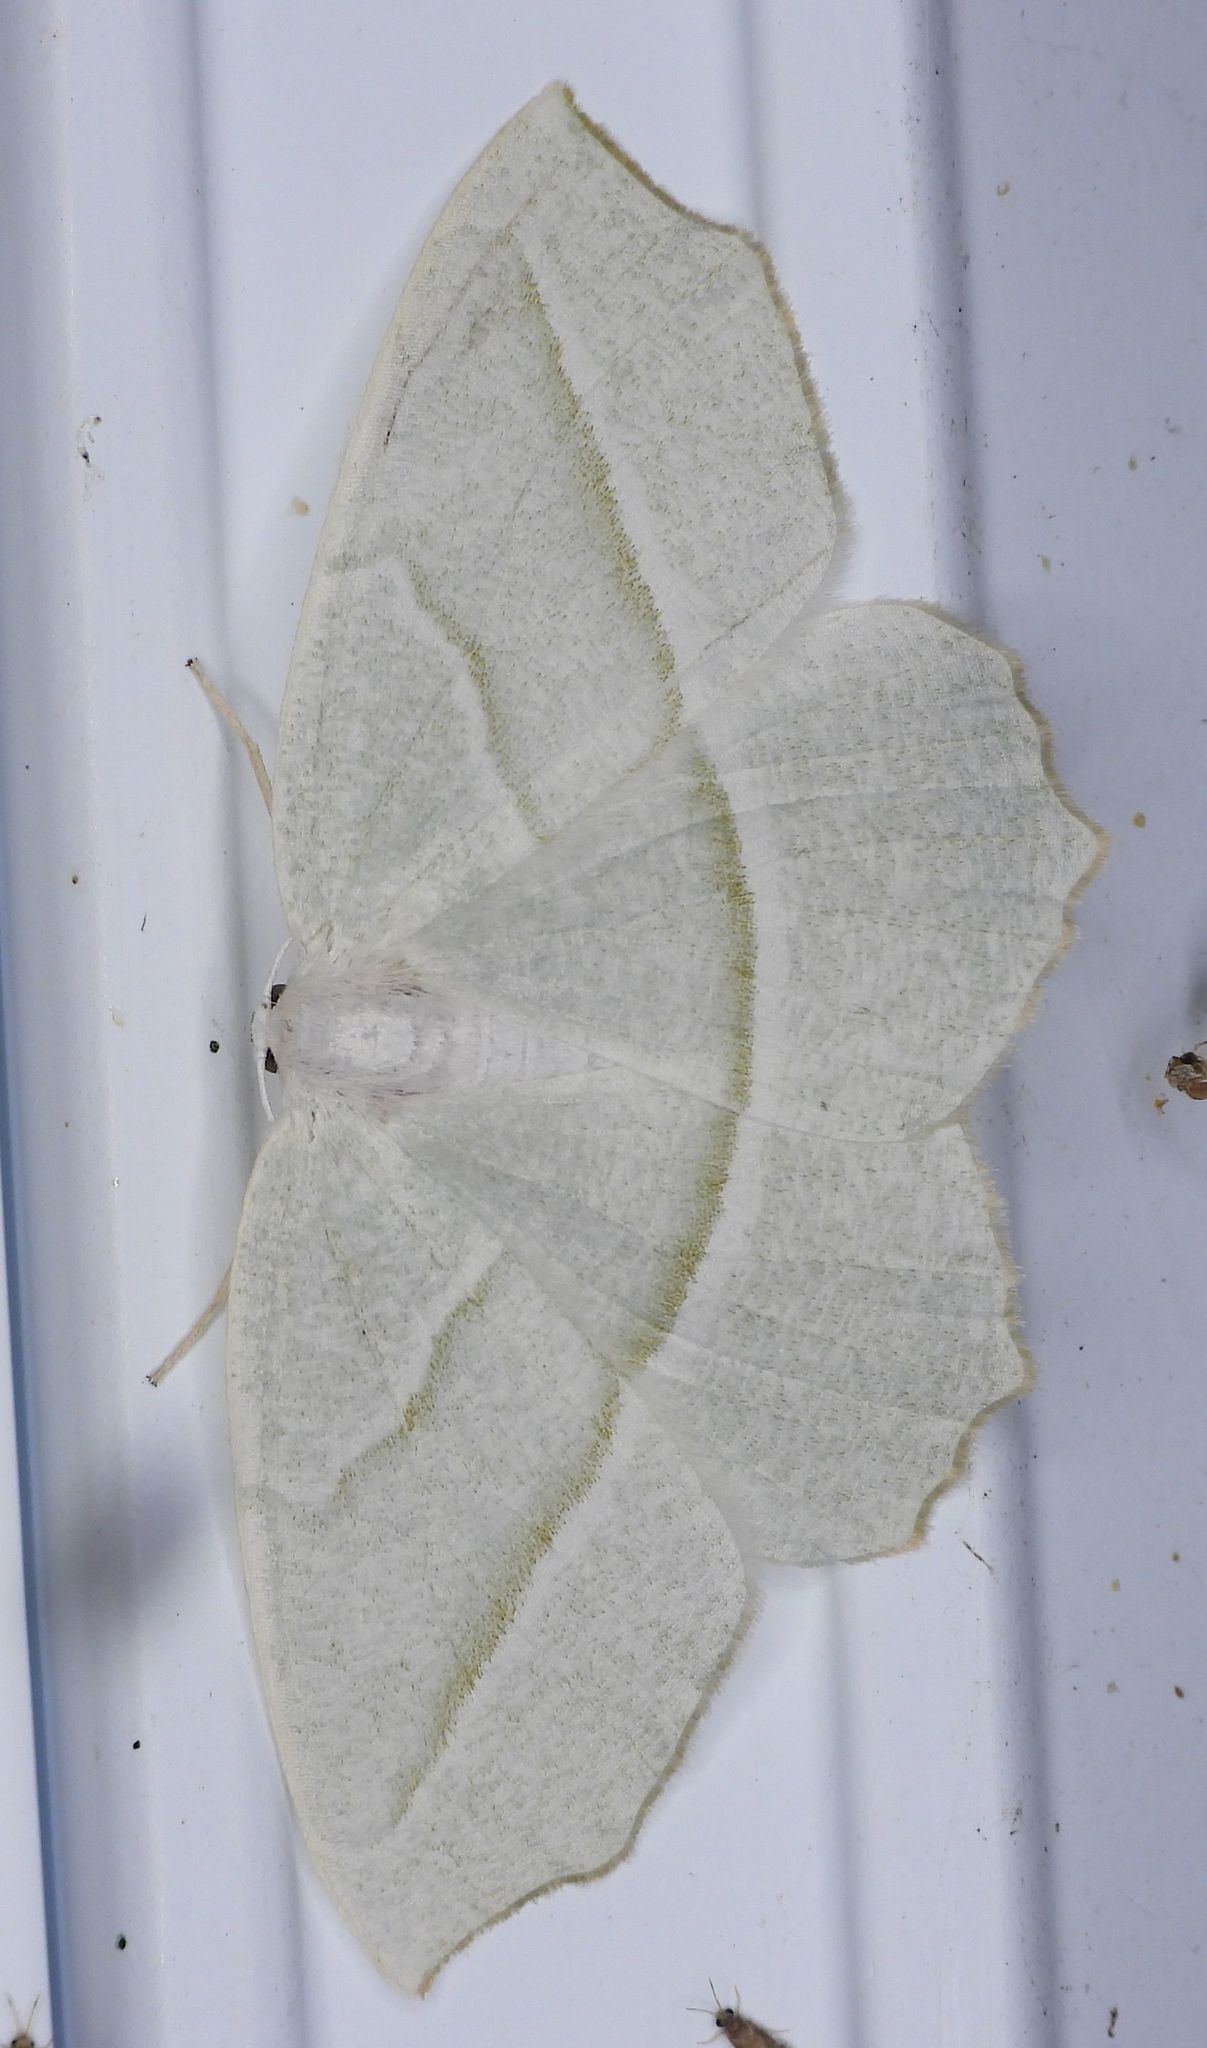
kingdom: Animalia
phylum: Arthropoda
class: Insecta
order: Lepidoptera
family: Geometridae
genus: Campaea
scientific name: Campaea perlata
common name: Fringed looper
